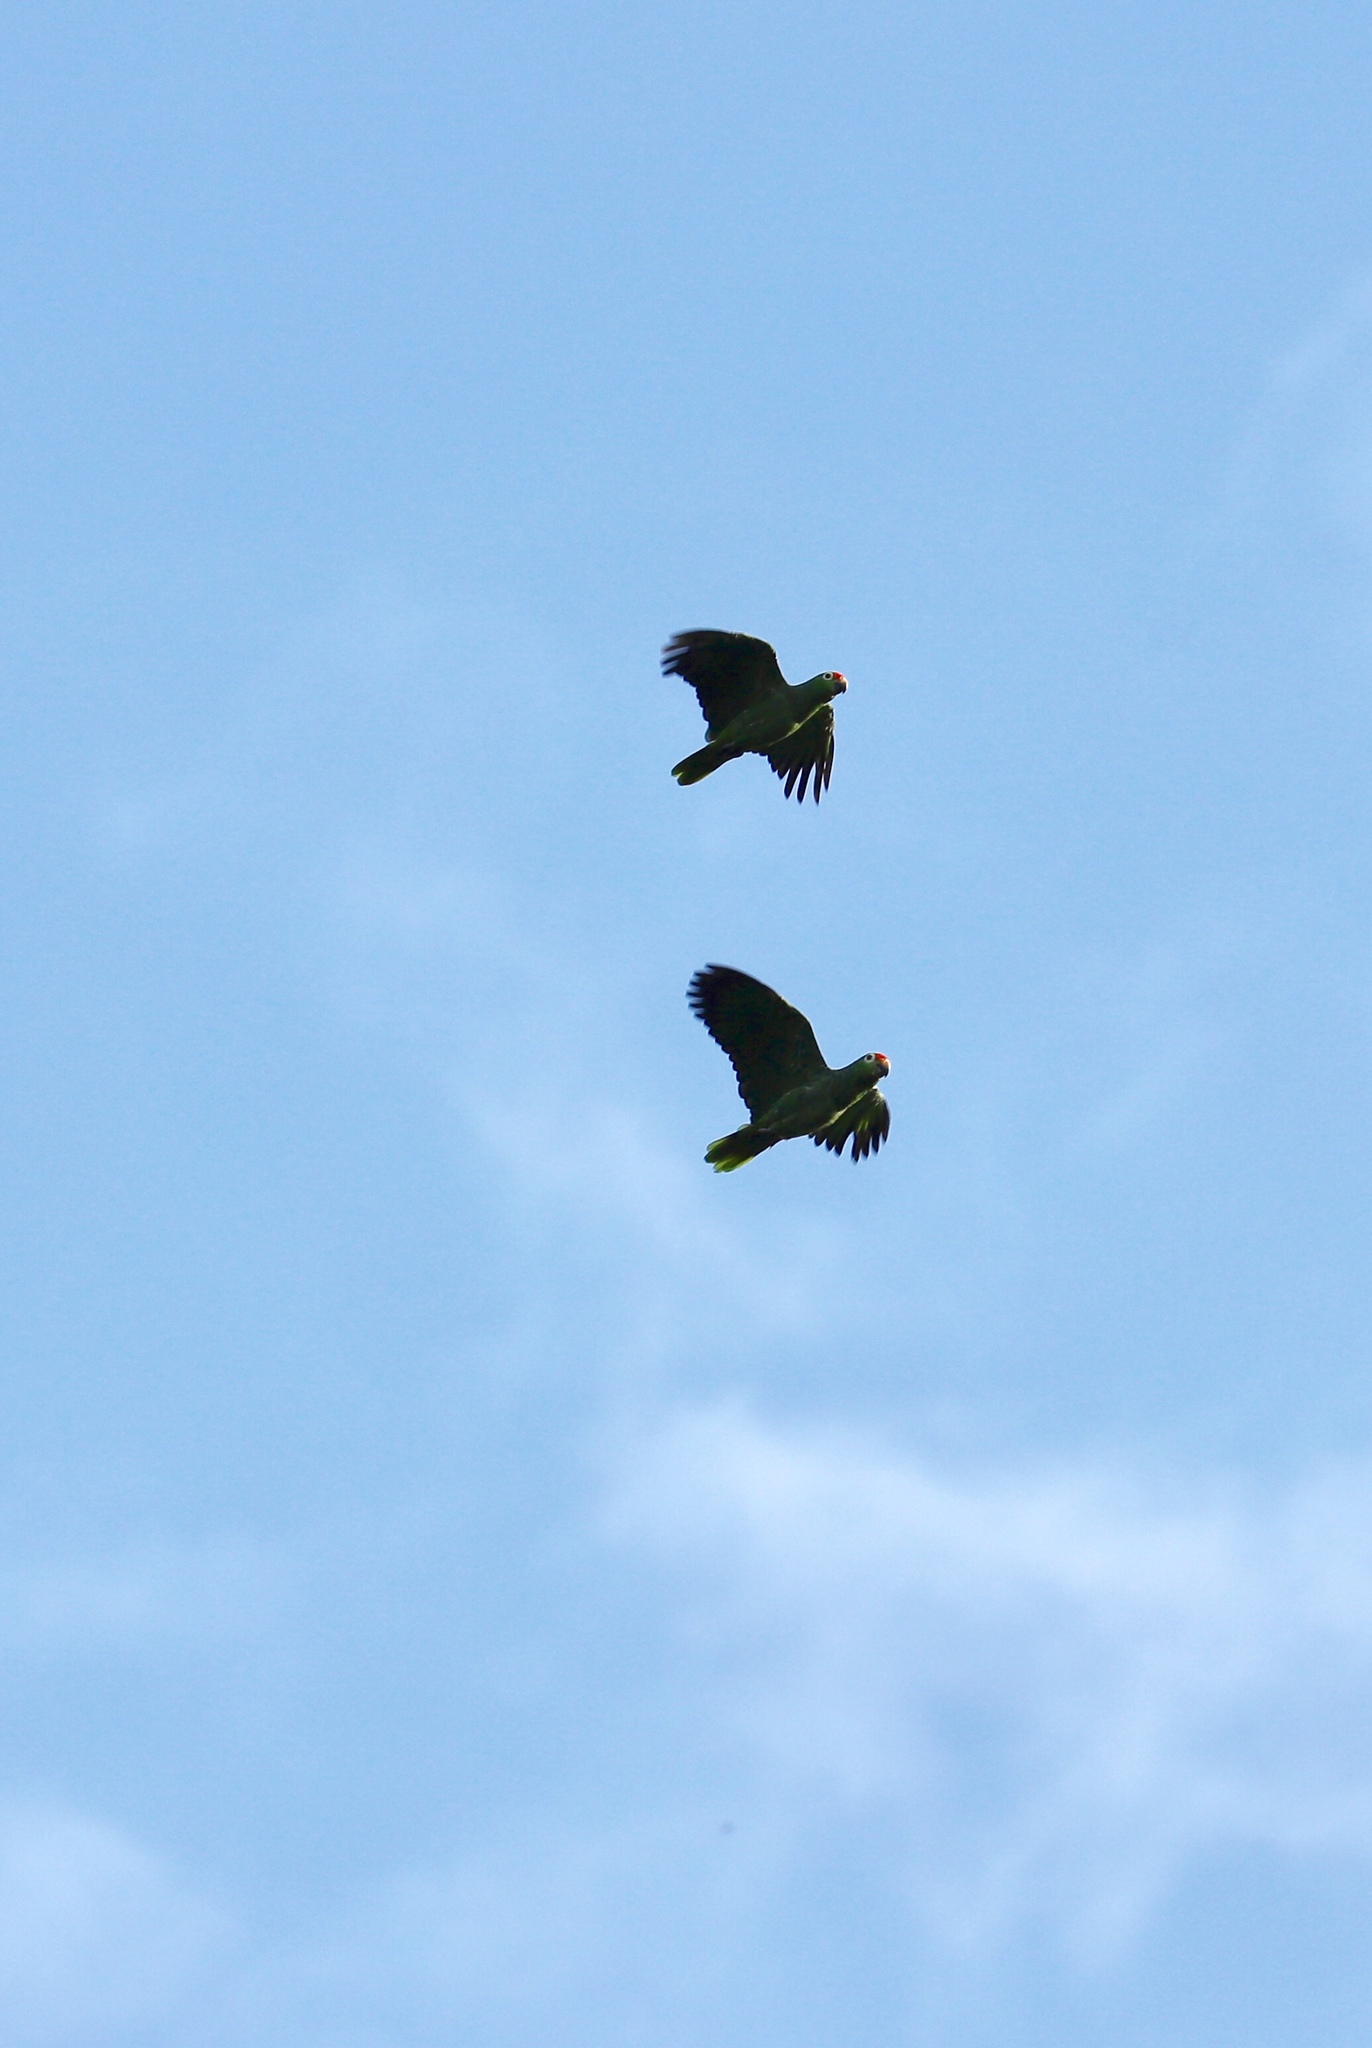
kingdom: Animalia
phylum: Chordata
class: Aves
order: Psittaciformes
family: Psittacidae
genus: Amazona
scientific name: Amazona autumnalis
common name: Red-lored amazon
